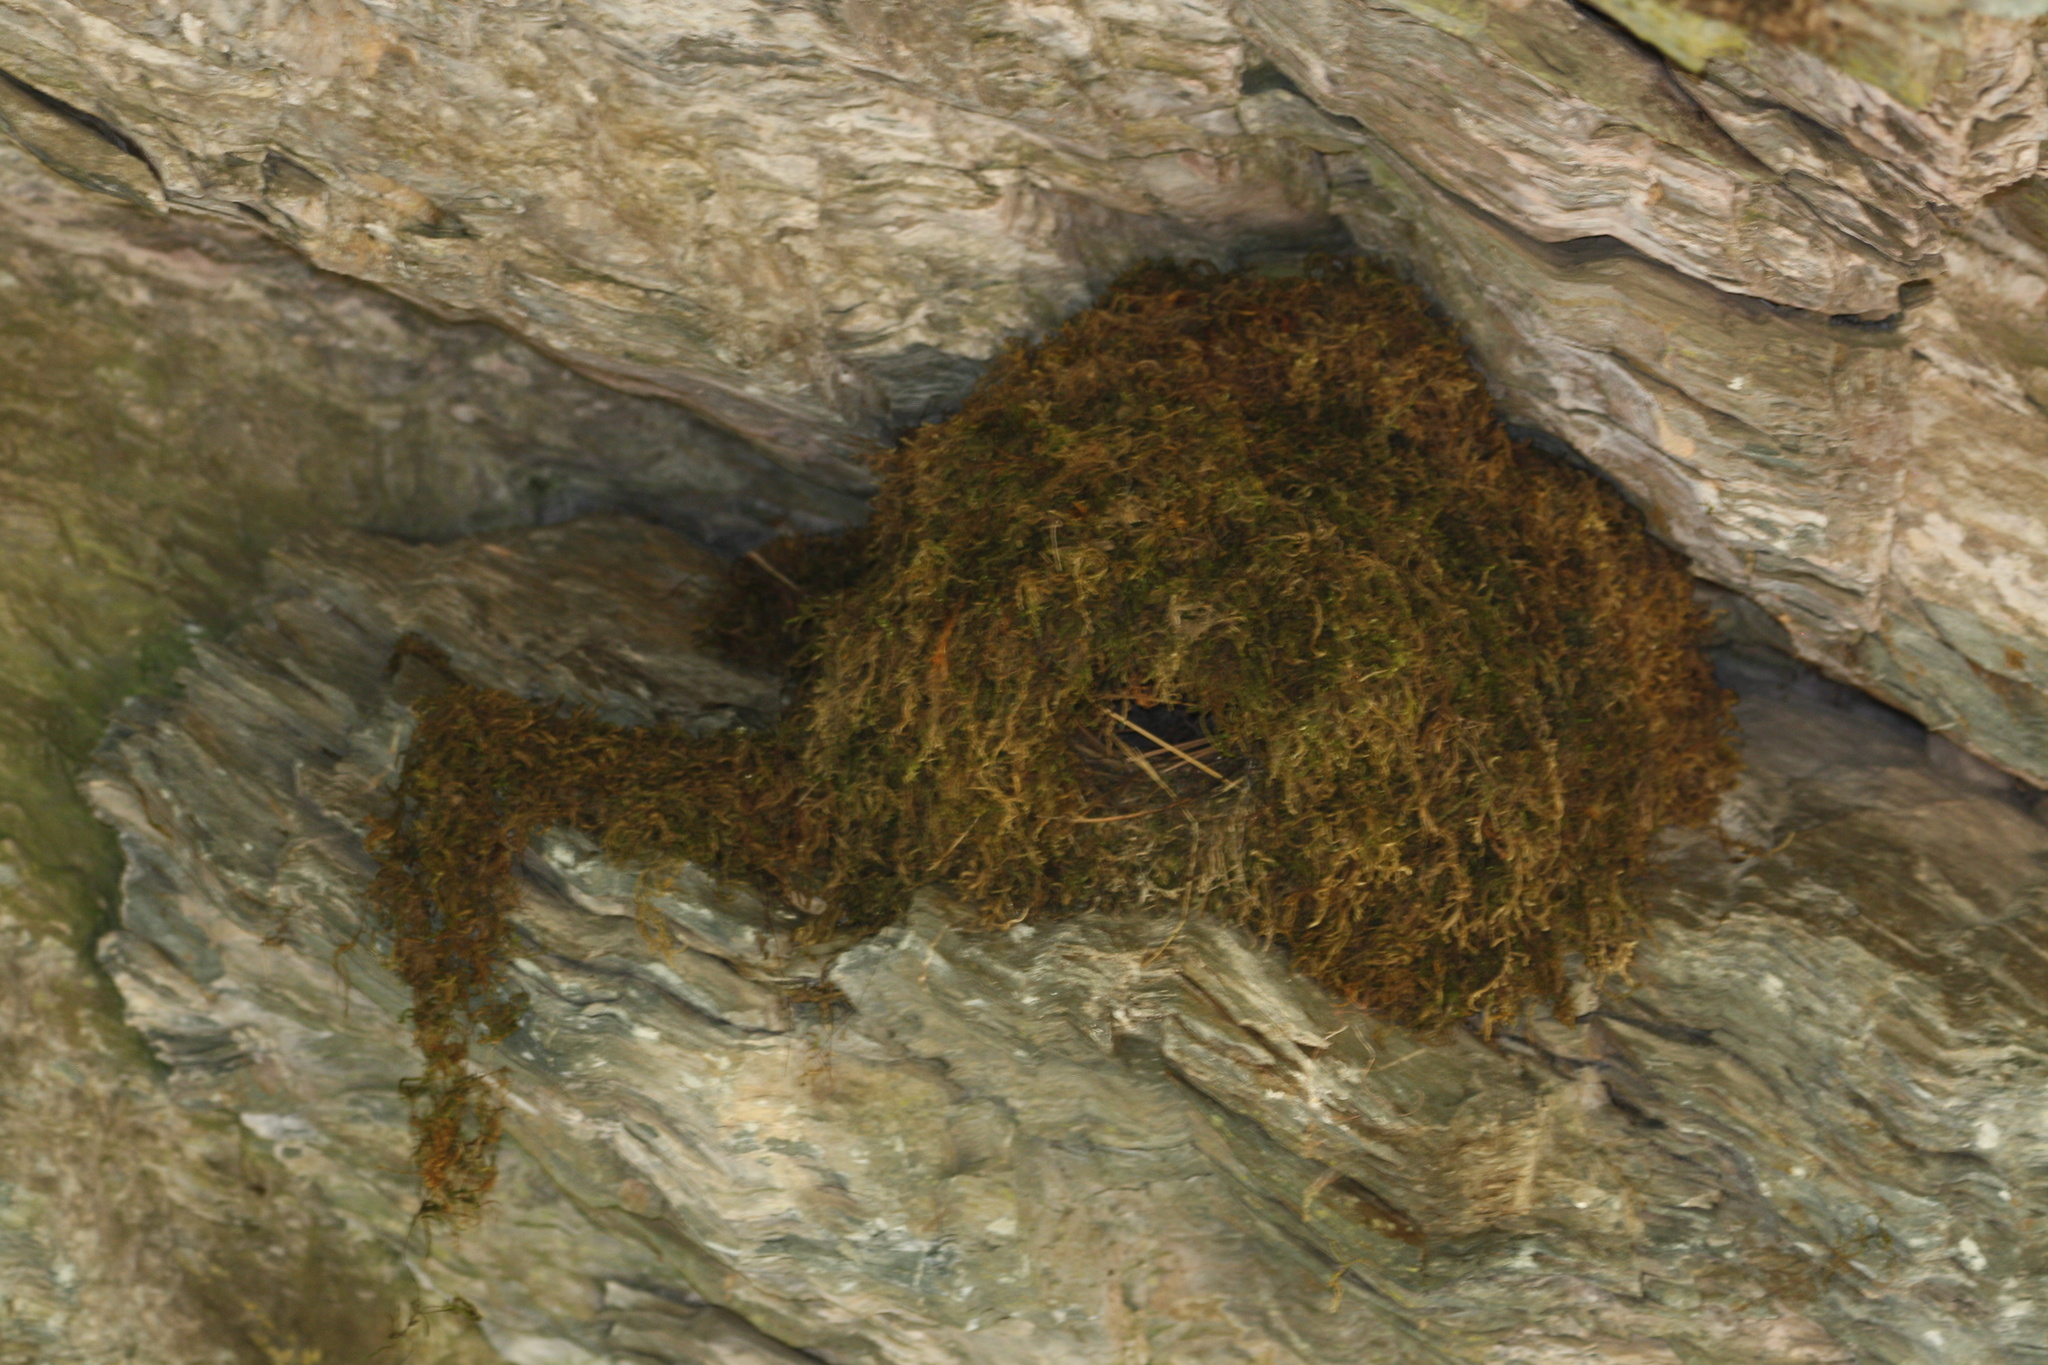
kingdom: Animalia
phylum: Chordata
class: Aves
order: Passeriformes
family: Cinclidae
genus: Cinclus
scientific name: Cinclus mexicanus
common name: American dipper
